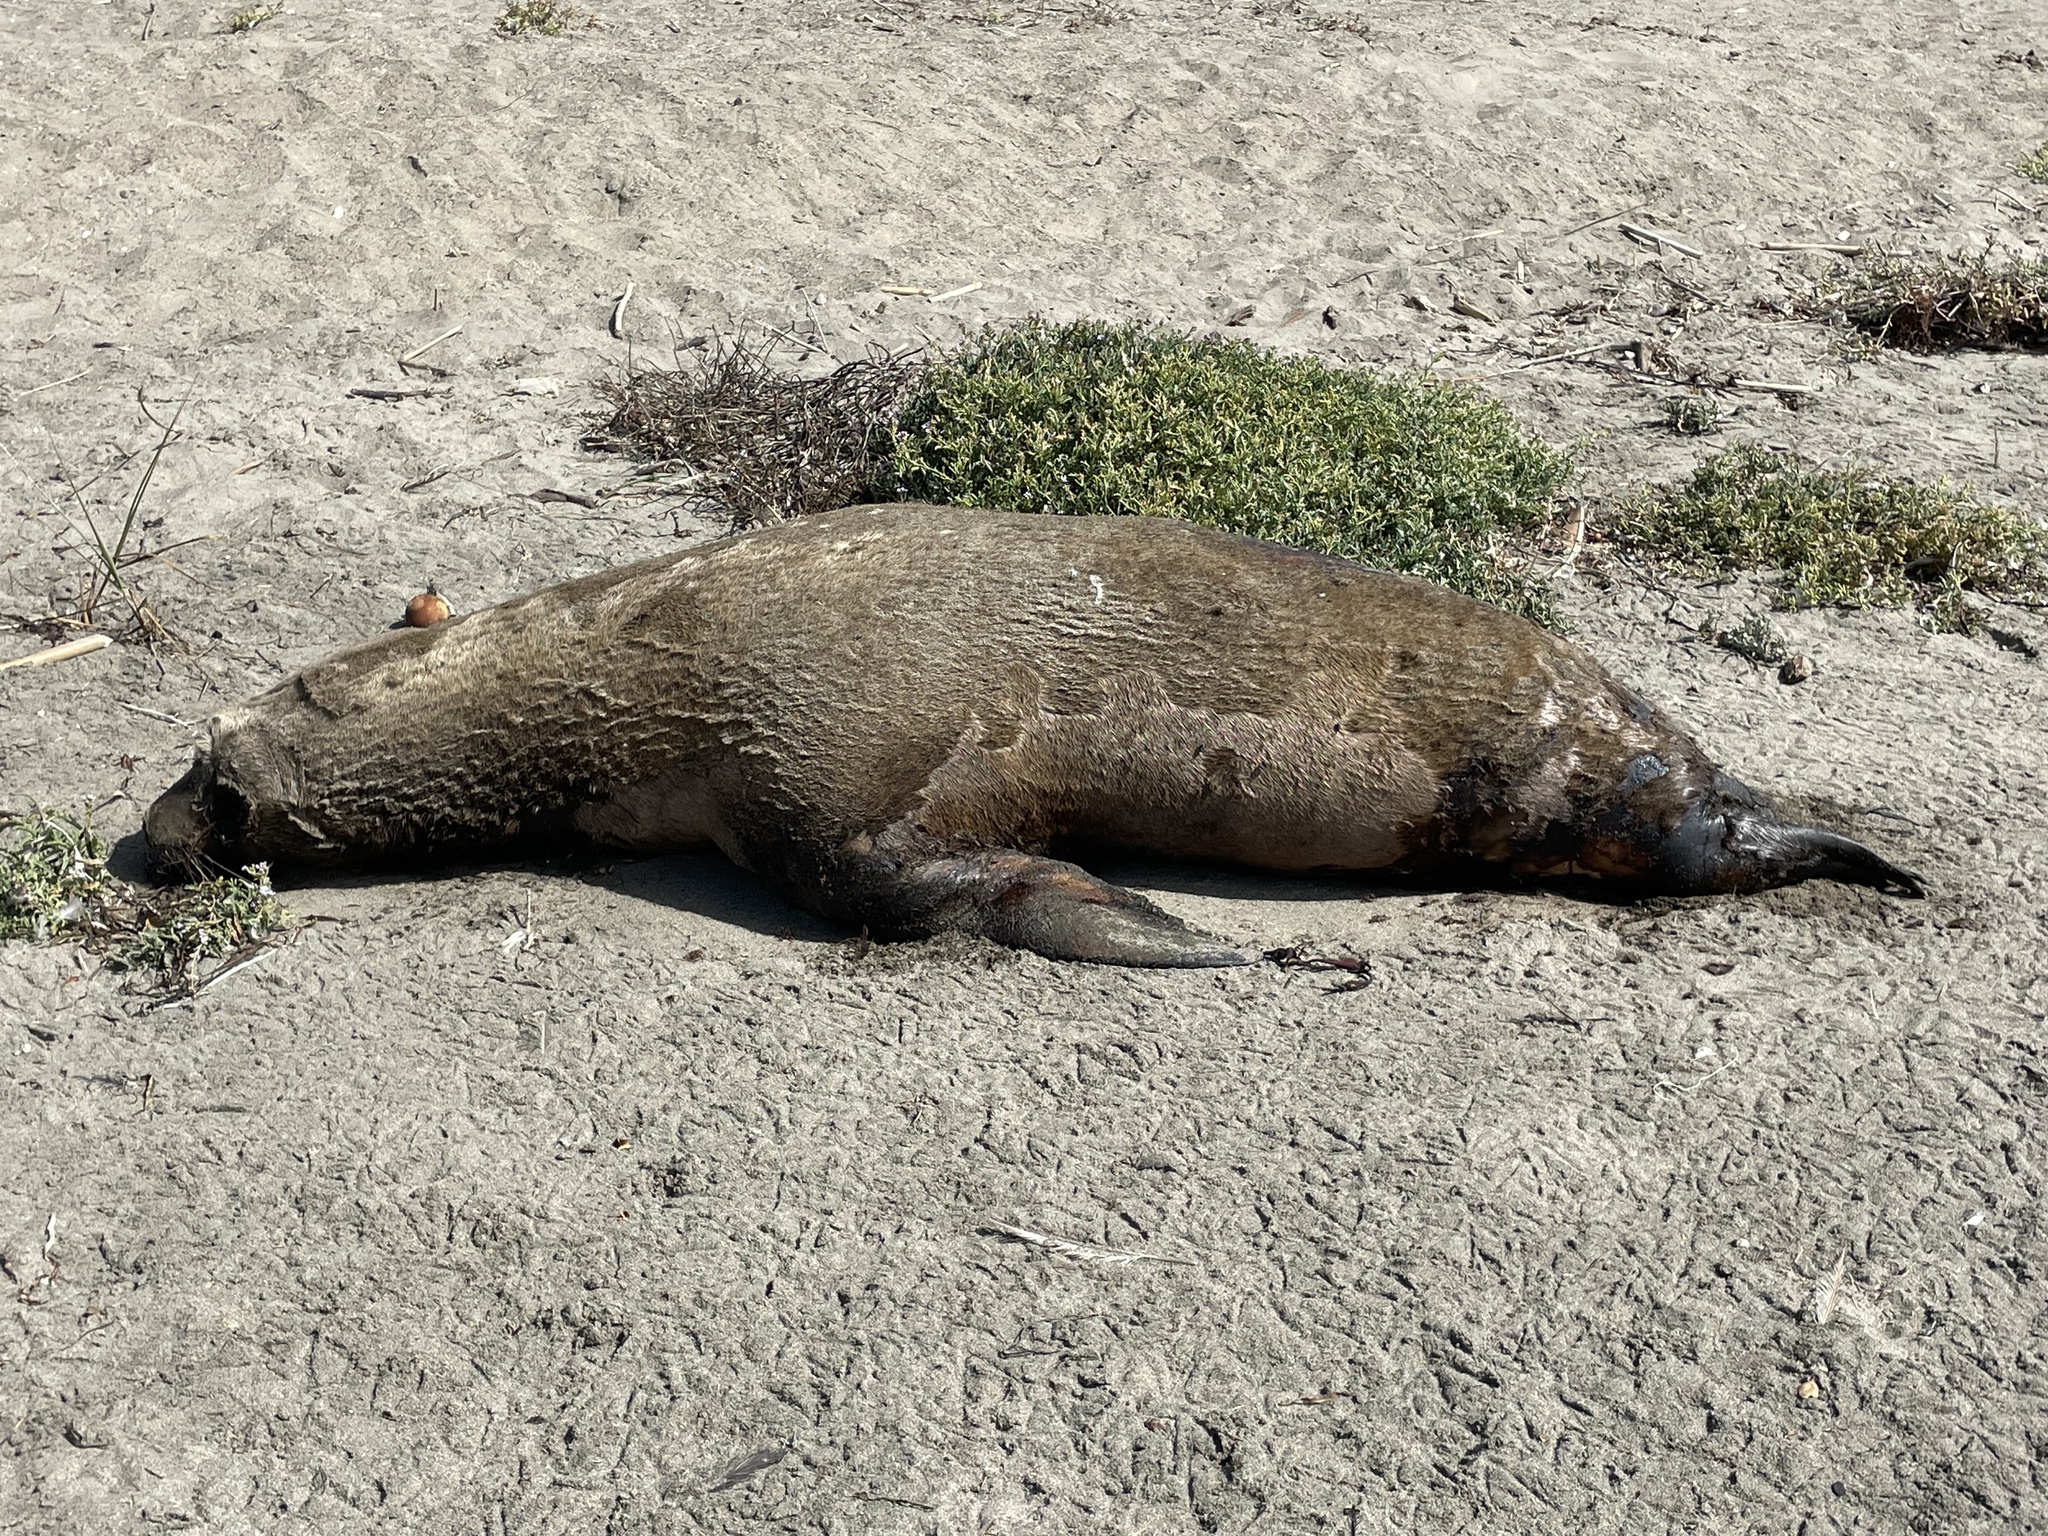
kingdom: Animalia
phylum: Chordata
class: Mammalia
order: Carnivora
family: Otariidae
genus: Zalophus
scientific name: Zalophus californianus
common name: California sea lion
